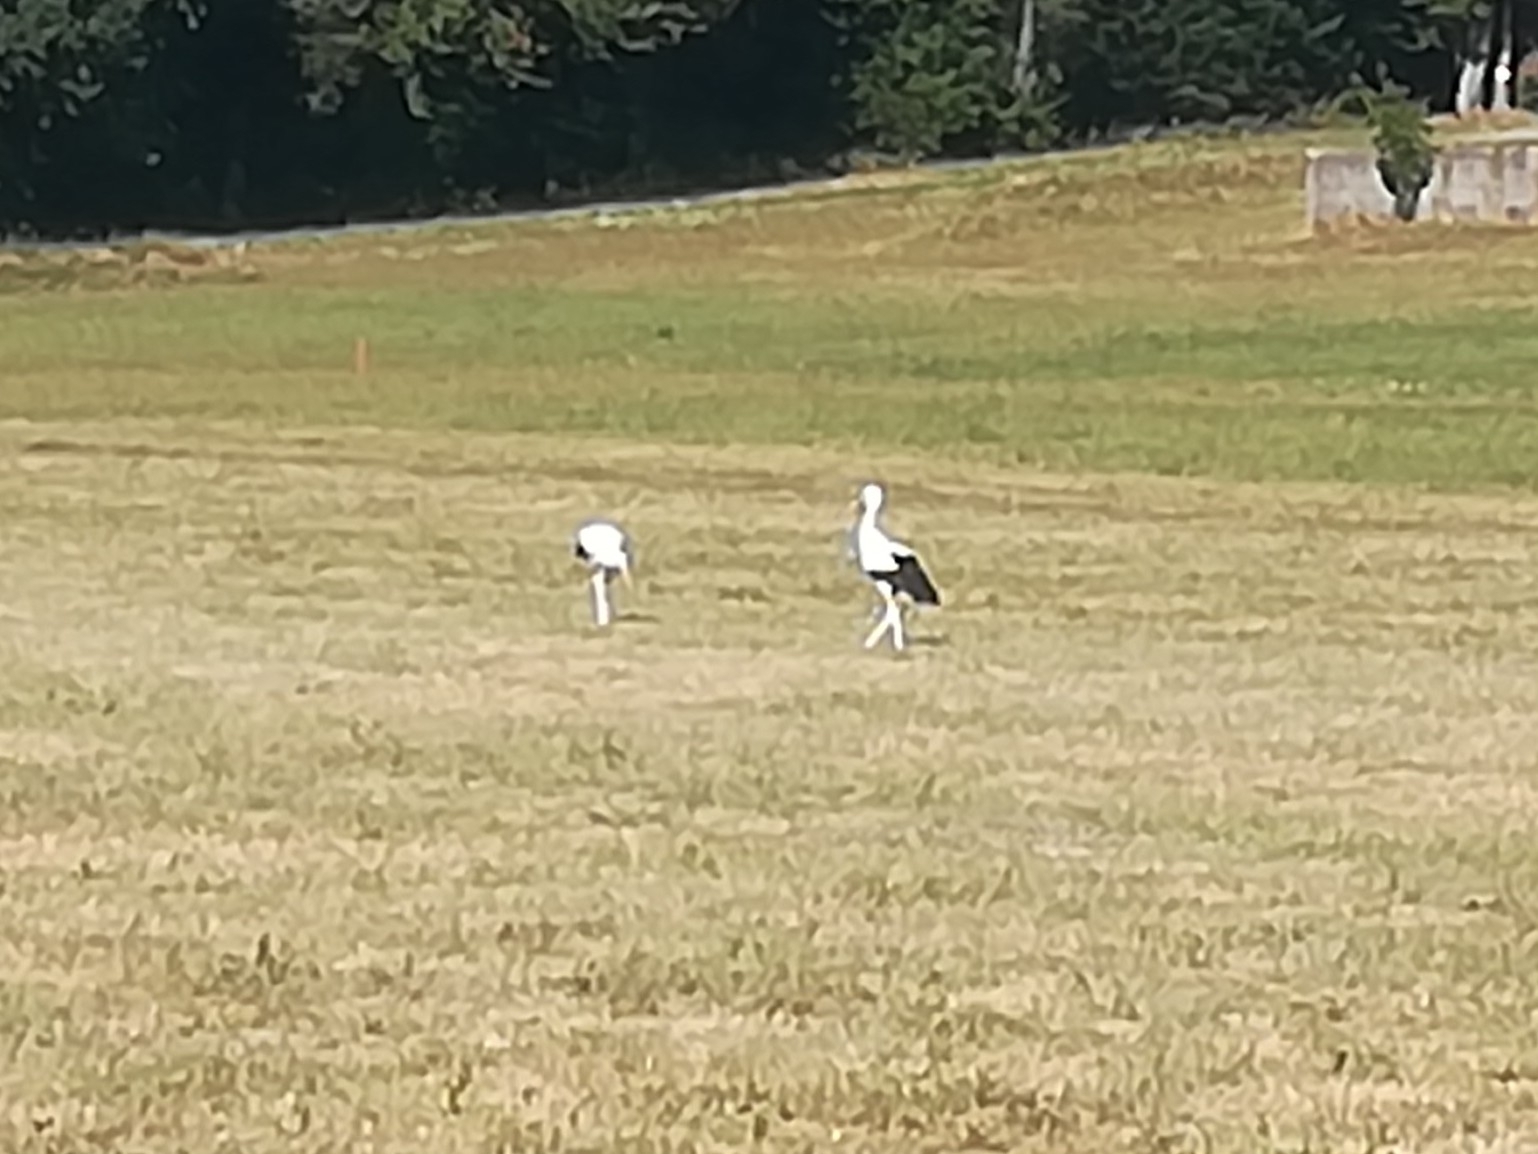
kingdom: Animalia
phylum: Chordata
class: Aves
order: Ciconiiformes
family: Ciconiidae
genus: Ciconia
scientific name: Ciconia ciconia
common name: White stork
